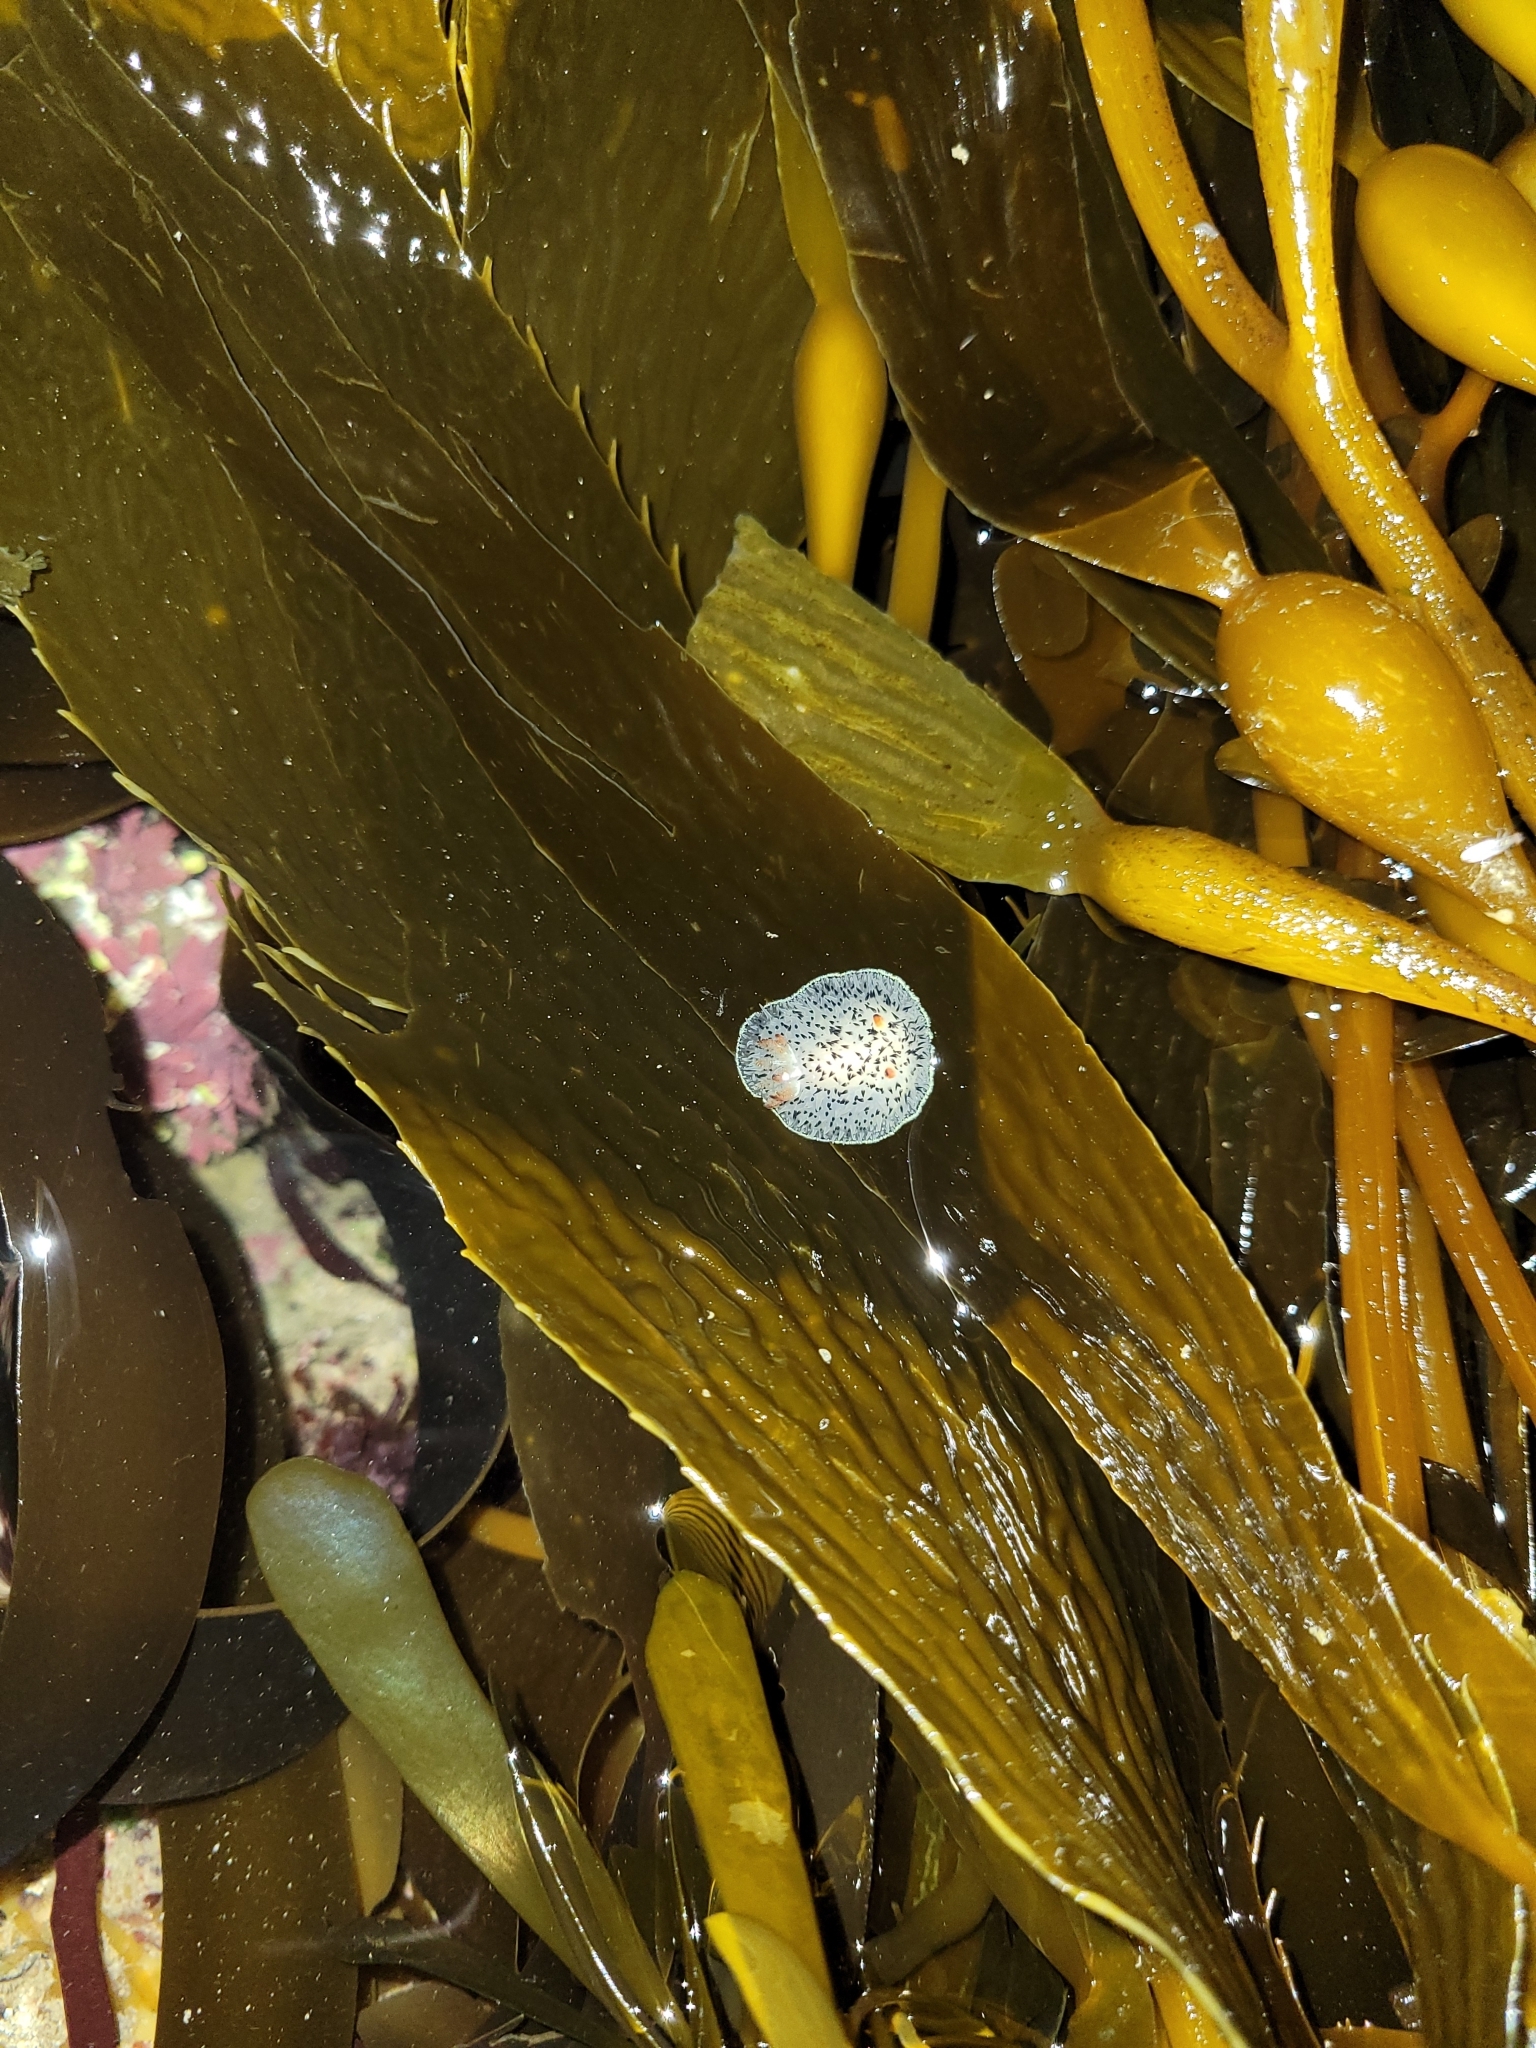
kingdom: Animalia
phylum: Mollusca
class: Gastropoda
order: Nudibranchia
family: Onchidorididae
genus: Acanthodoris
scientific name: Acanthodoris rhodoceras
